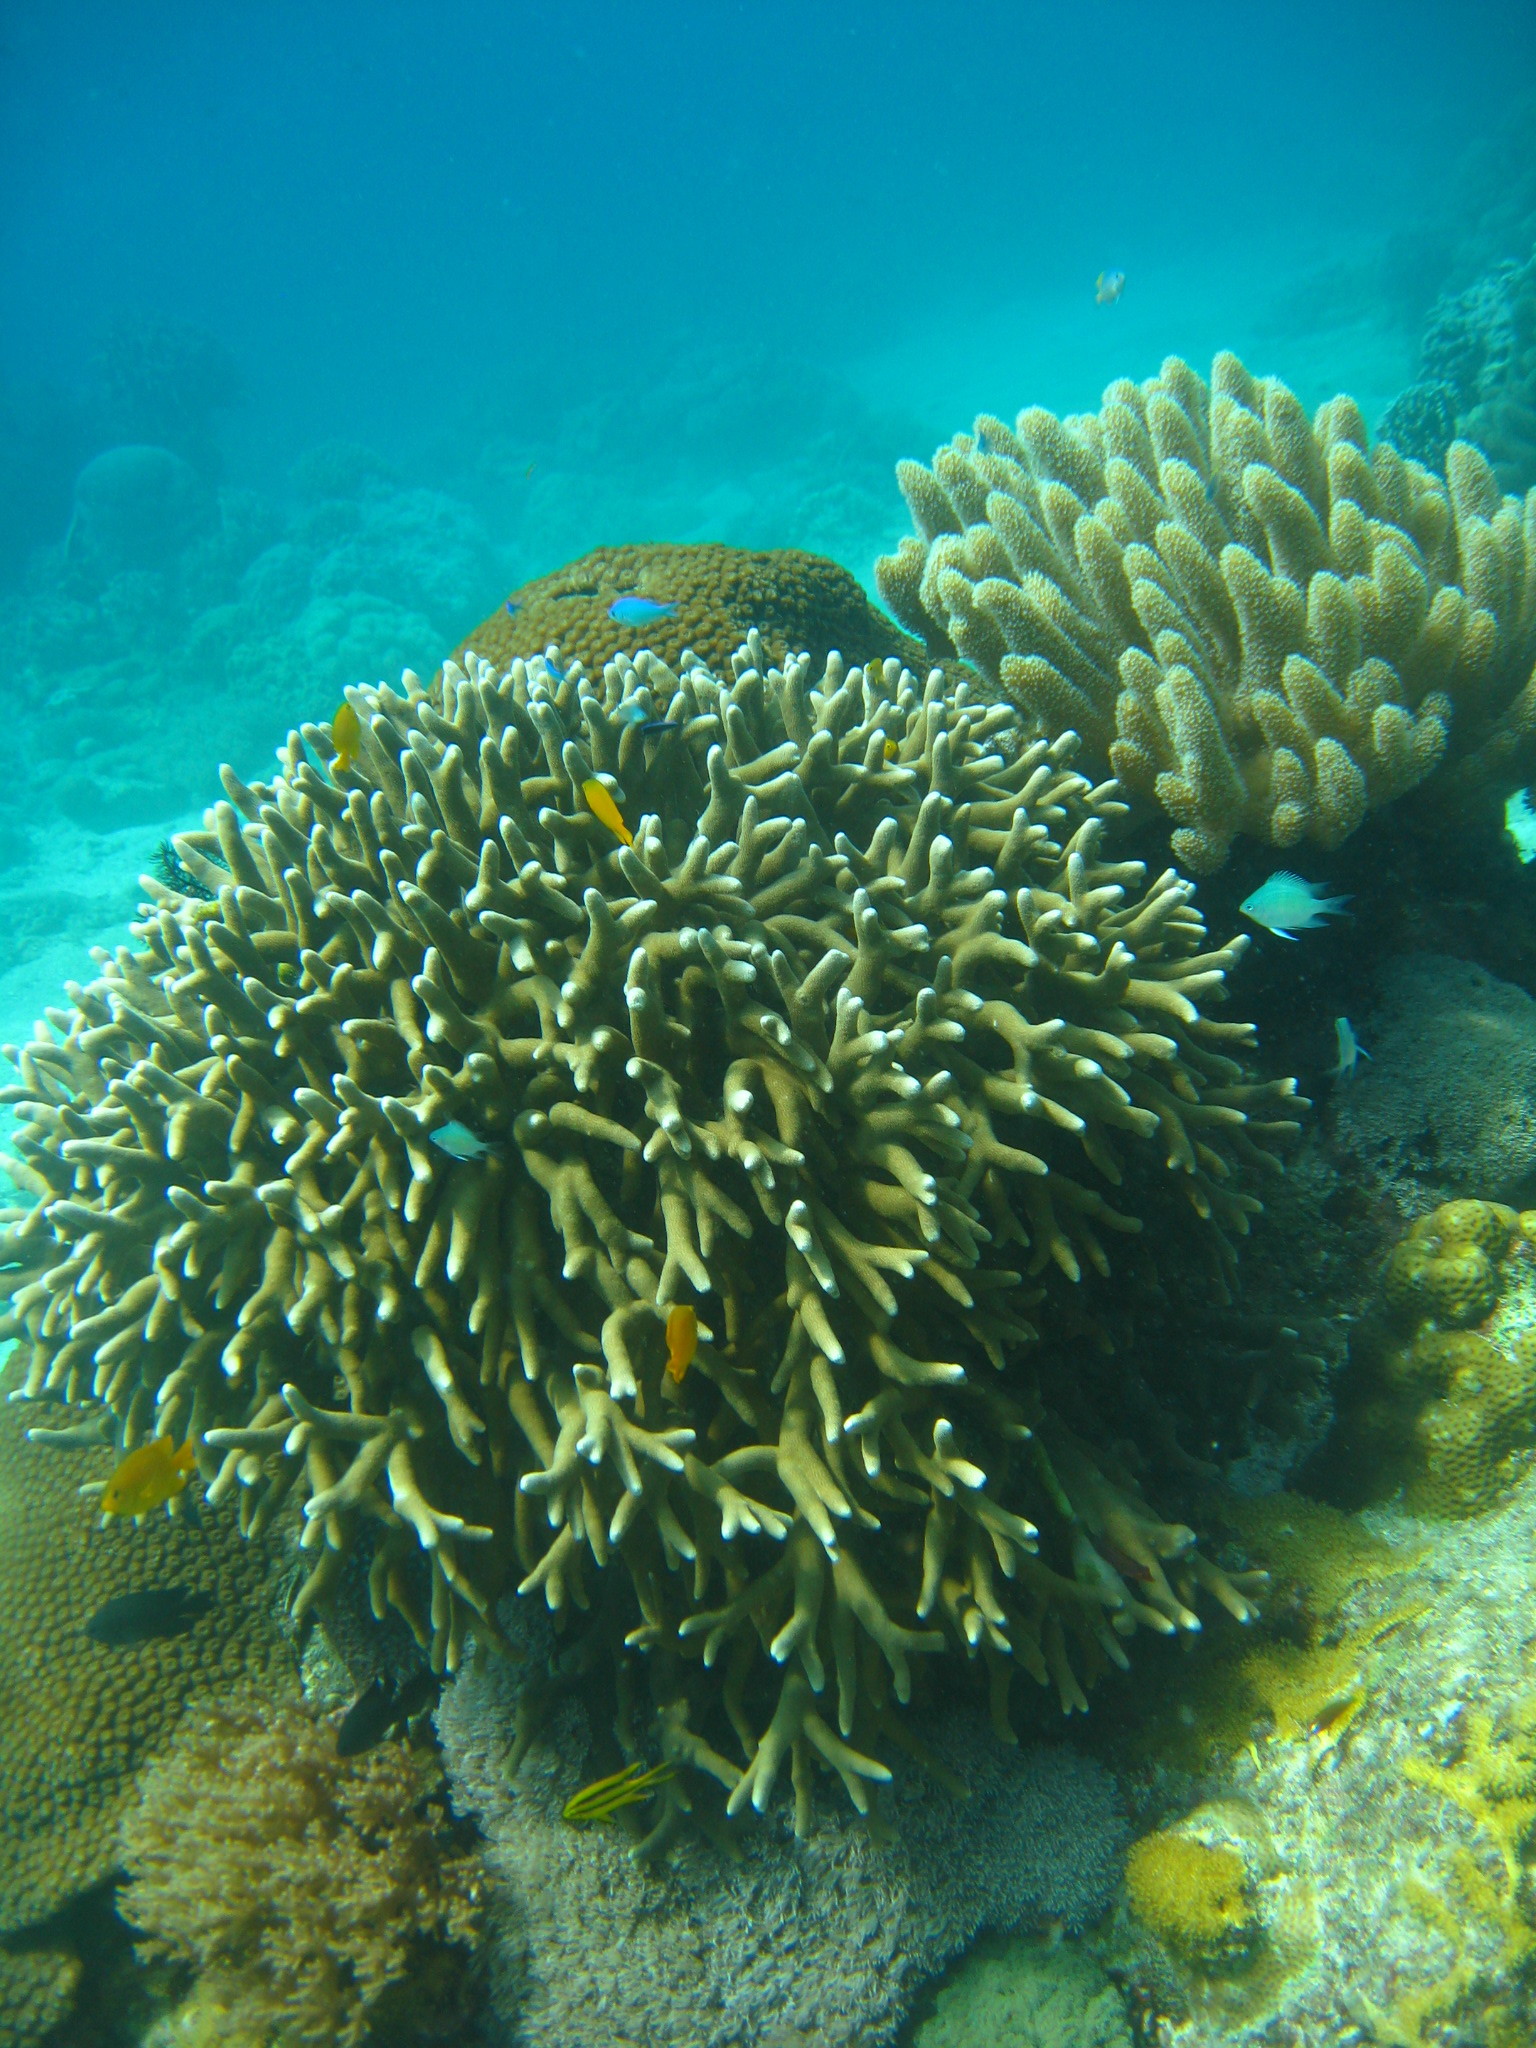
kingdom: Animalia
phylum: Cnidaria
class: Anthozoa
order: Scleractinia
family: Poritidae
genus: Porites
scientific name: Porites cylindrica
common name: Hump coral
